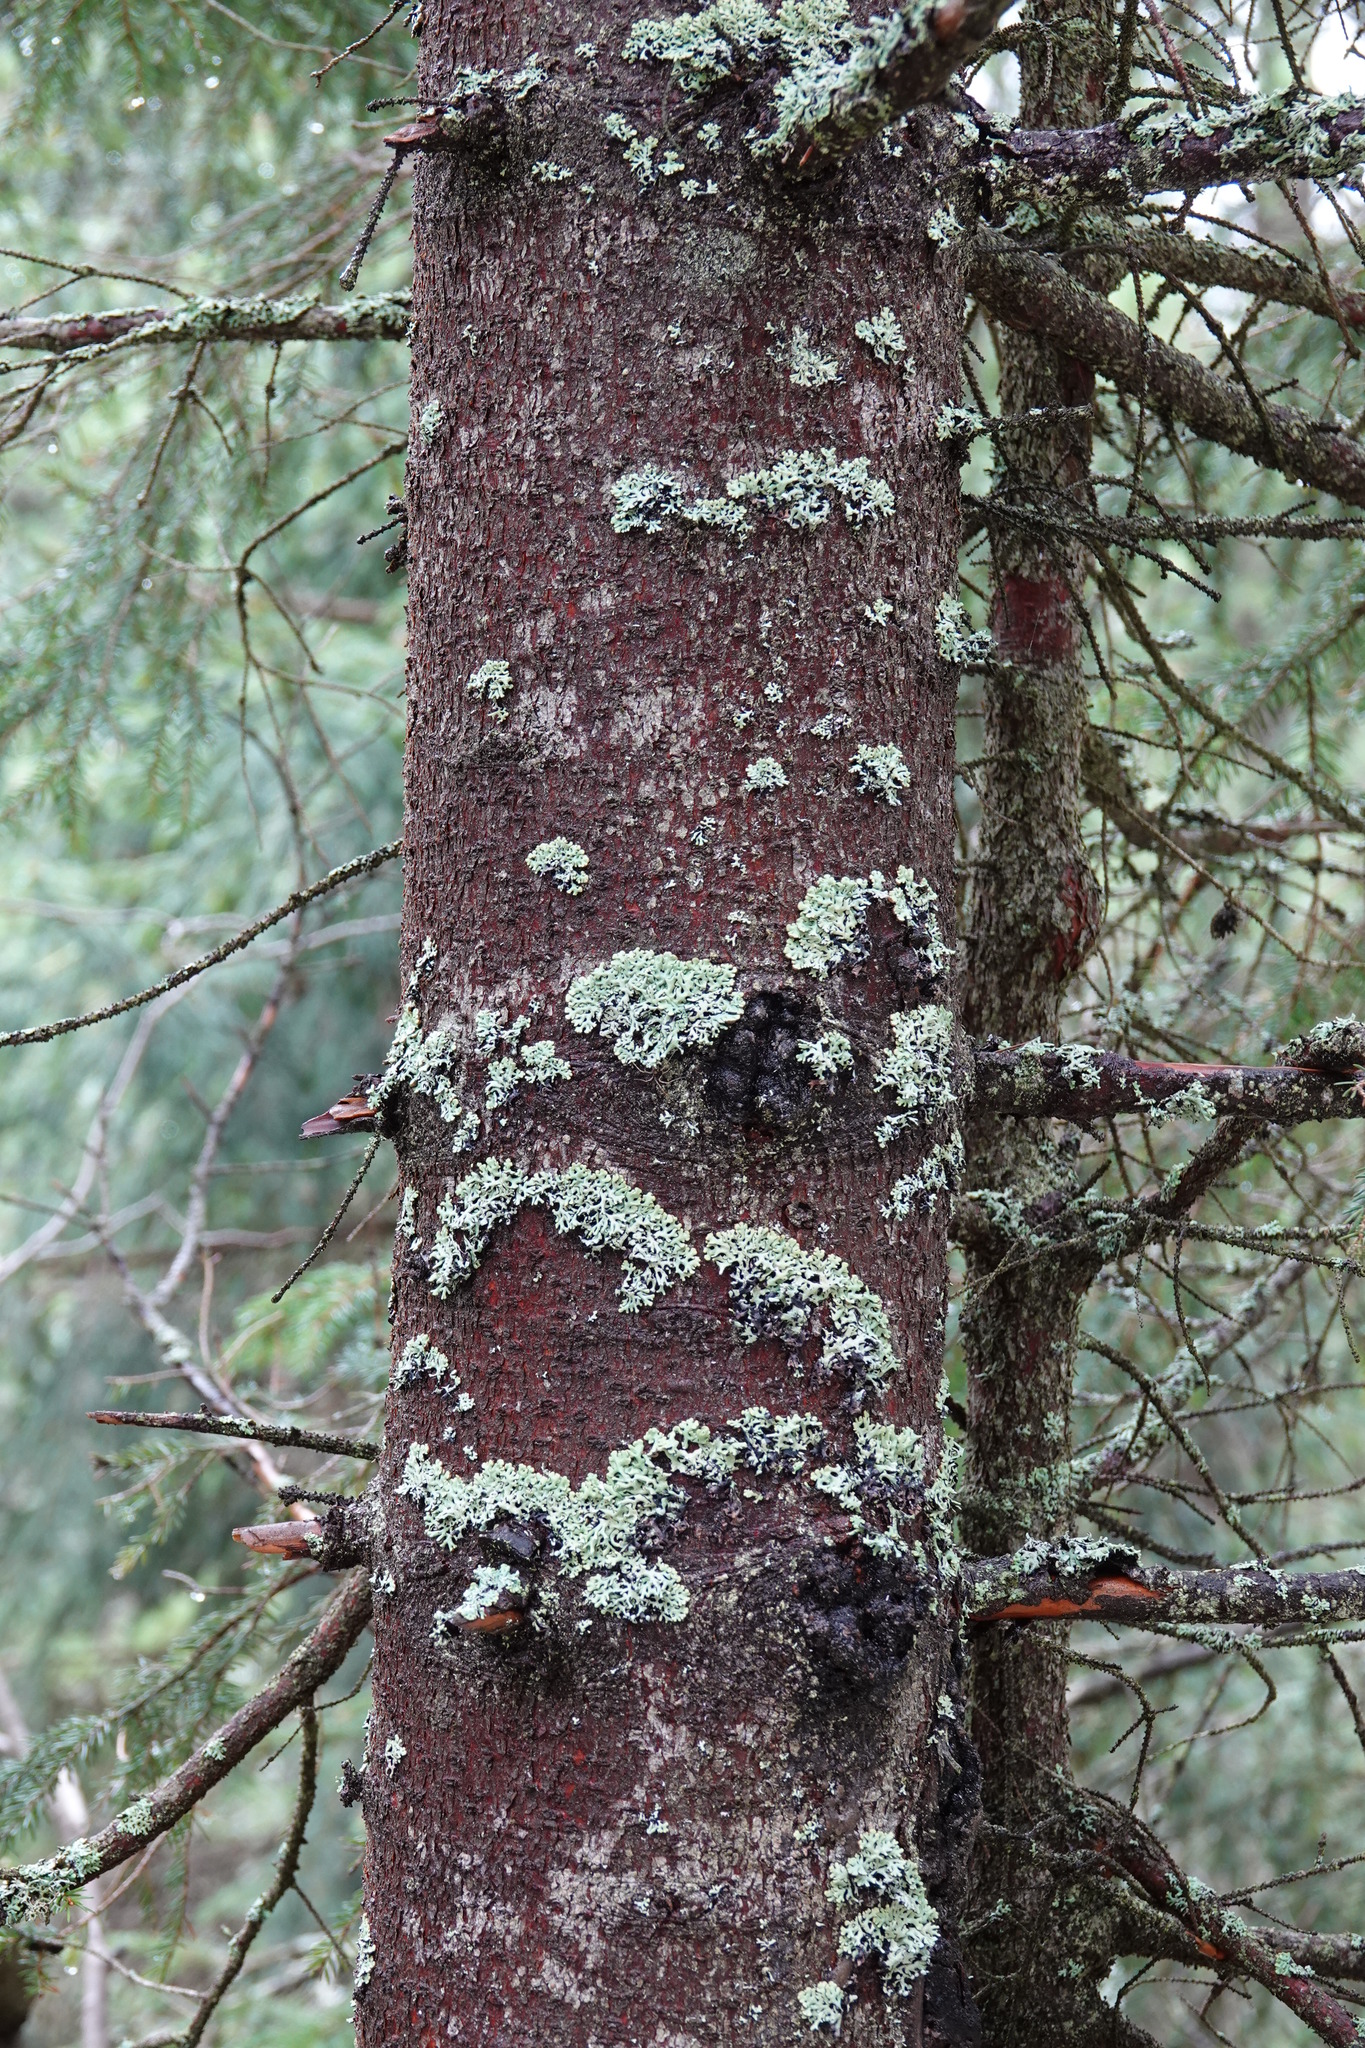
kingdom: Fungi
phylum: Ascomycota
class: Lecanoromycetes
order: Lecanorales
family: Parmeliaceae
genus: Hypogymnia
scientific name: Hypogymnia physodes
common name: Dark crottle
